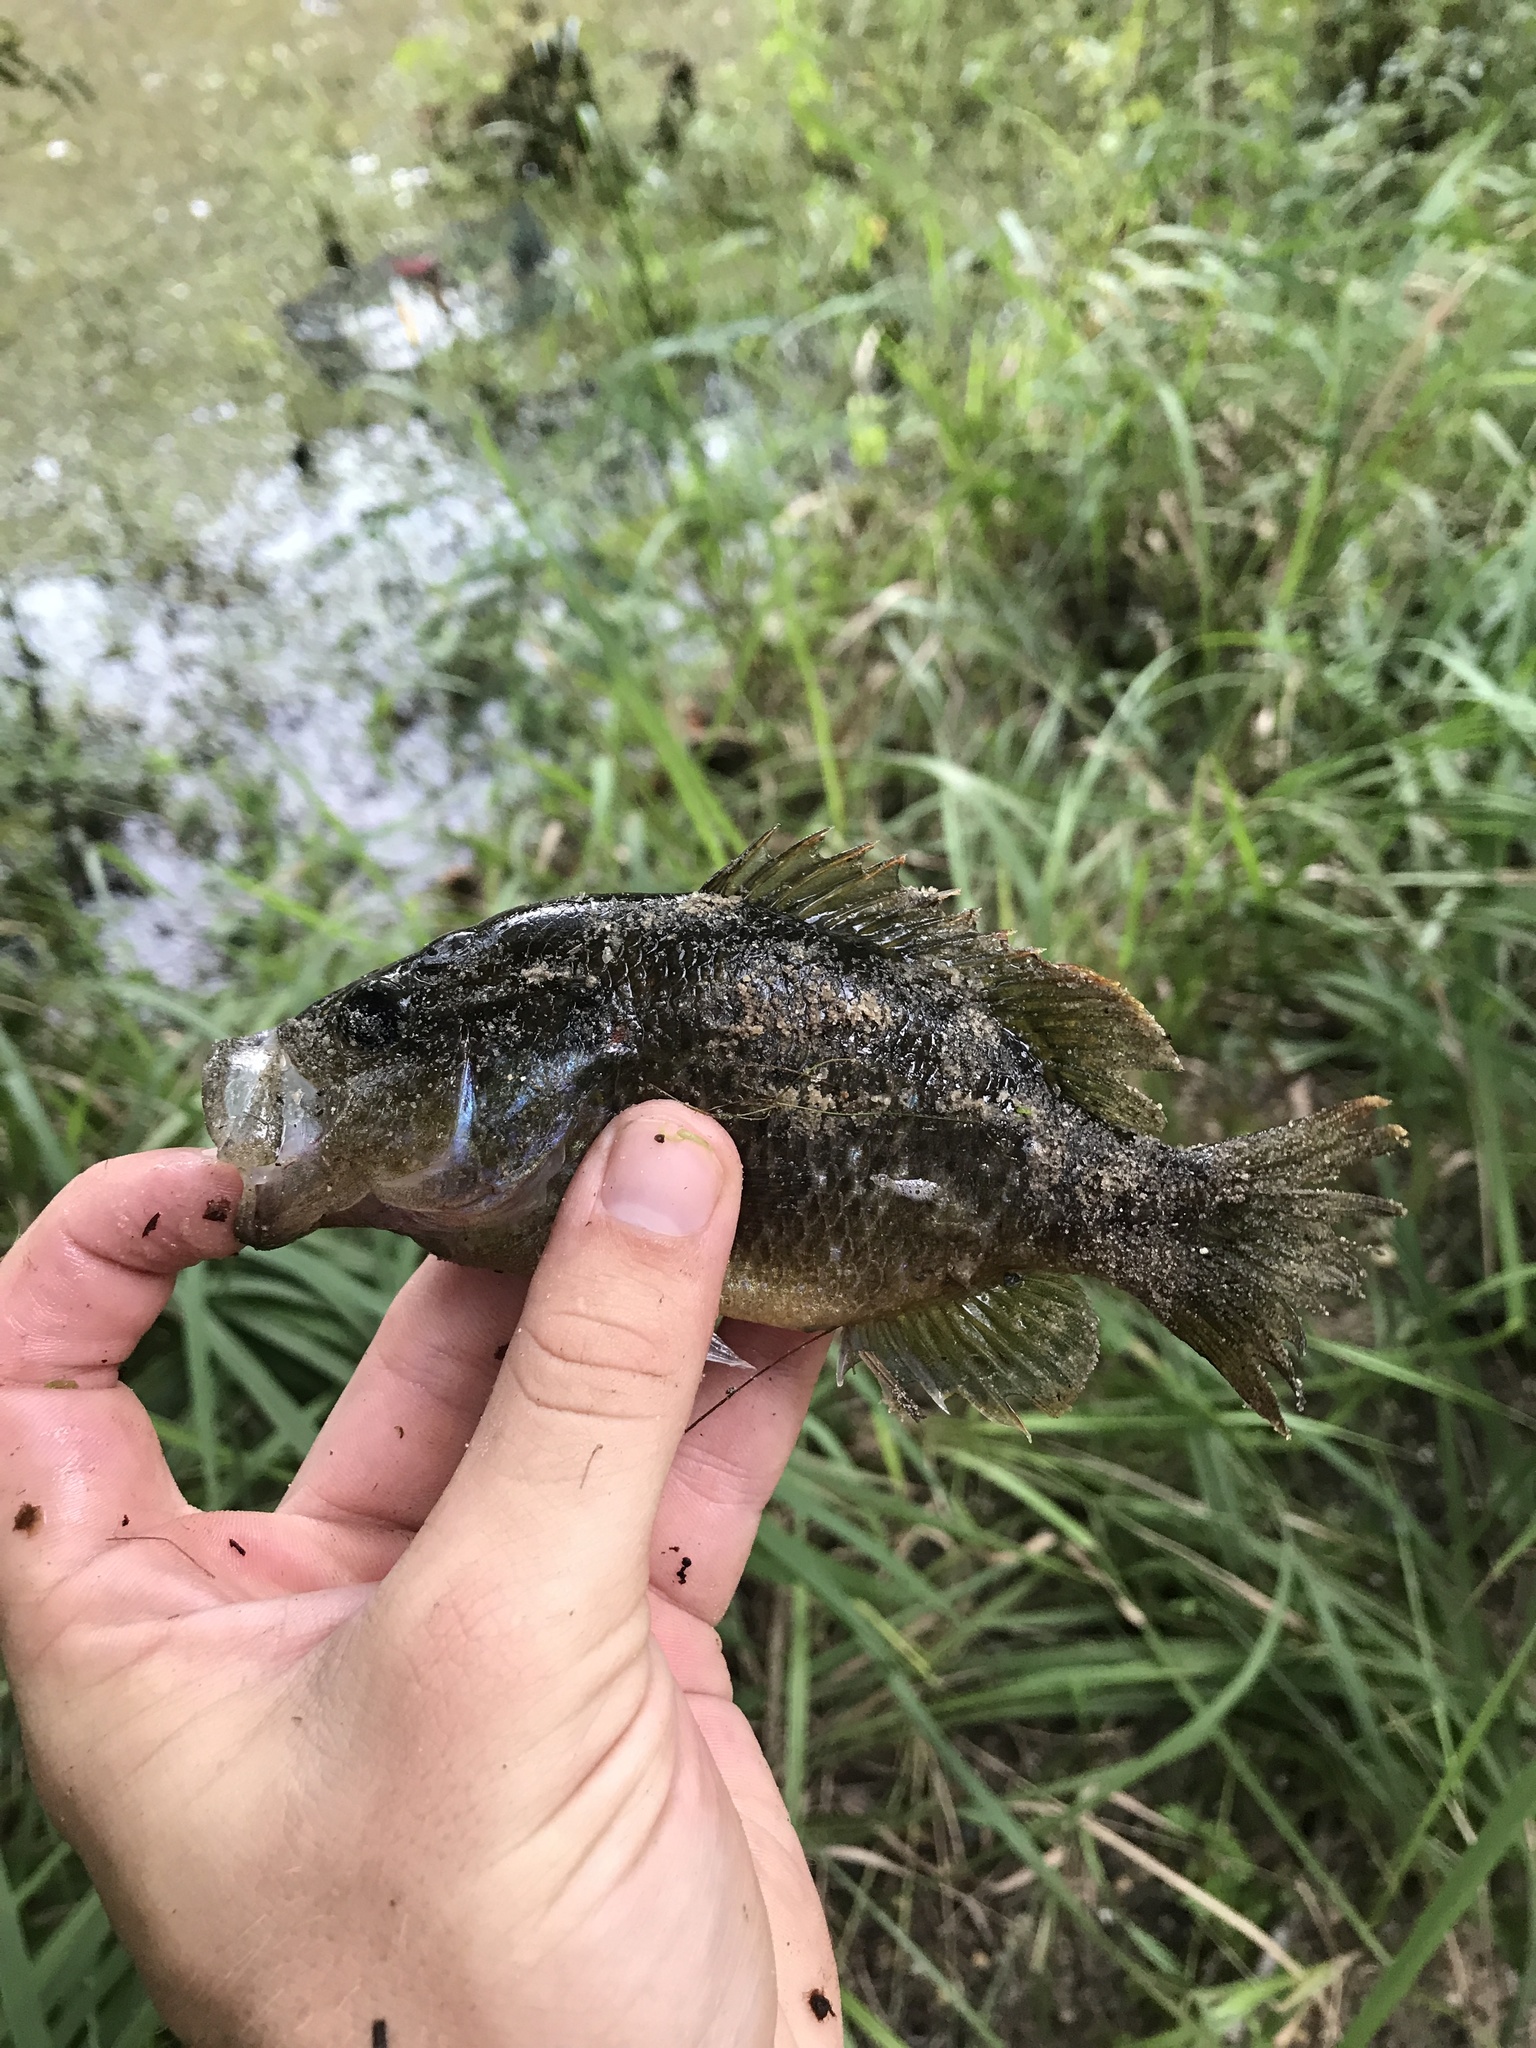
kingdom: Animalia
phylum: Chordata
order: Perciformes
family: Centrarchidae
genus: Lepomis
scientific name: Lepomis gulosus
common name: Warmouth
